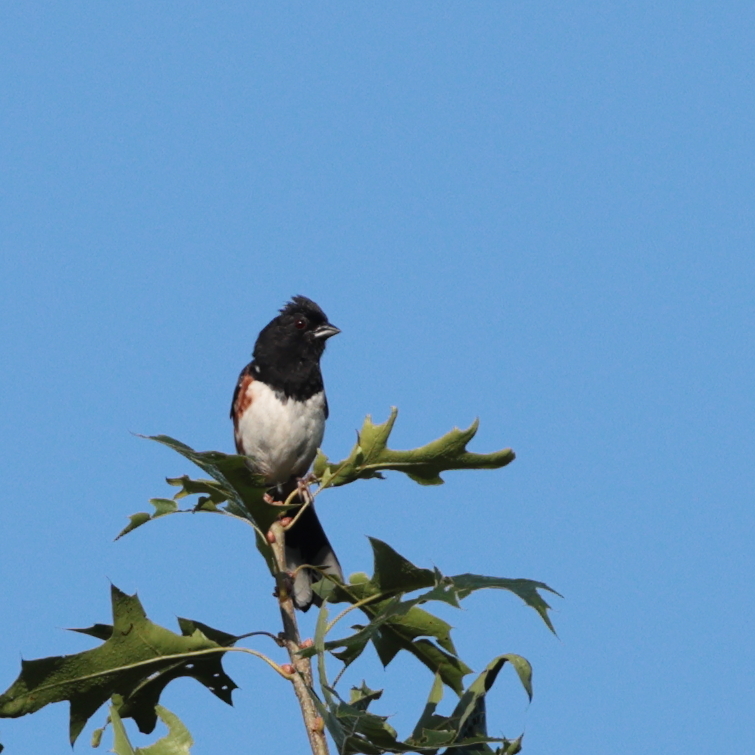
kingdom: Animalia
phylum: Chordata
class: Aves
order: Passeriformes
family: Passerellidae
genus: Pipilo
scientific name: Pipilo erythrophthalmus
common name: Eastern towhee
